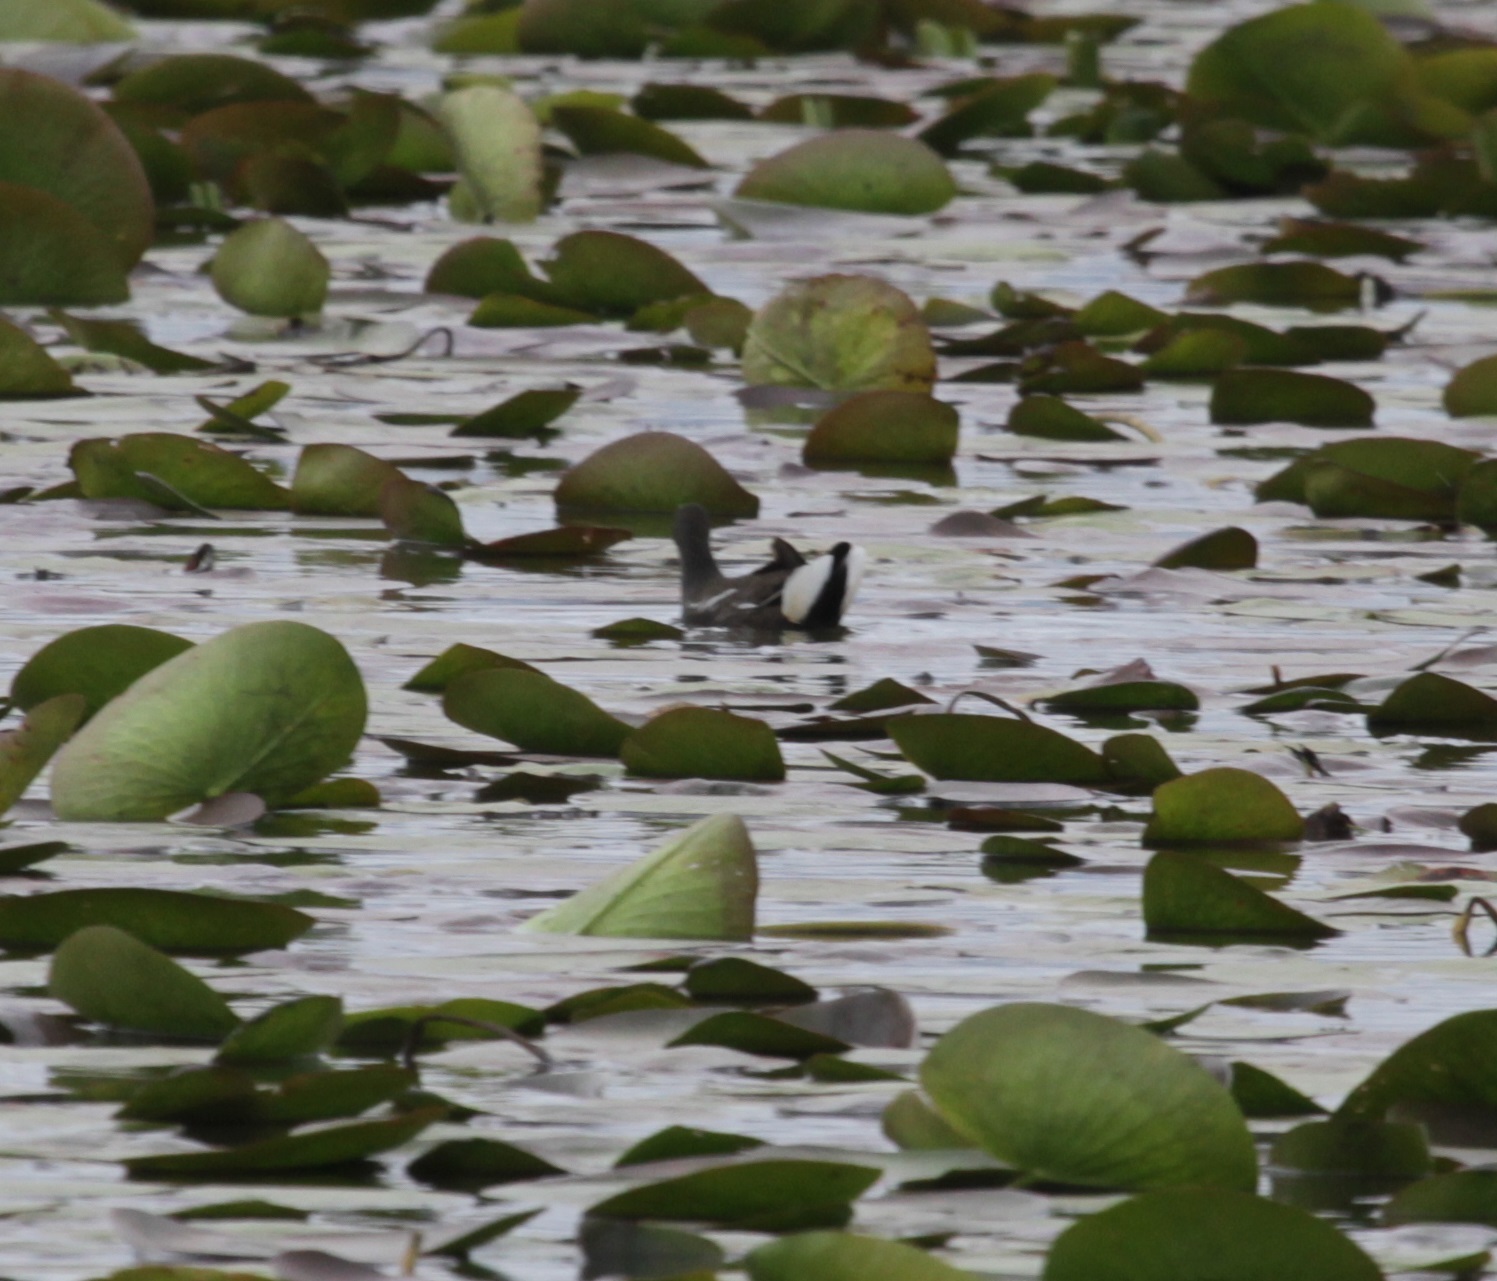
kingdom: Animalia
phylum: Chordata
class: Aves
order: Gruiformes
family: Rallidae
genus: Gallinula
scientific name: Gallinula chloropus
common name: Common moorhen
